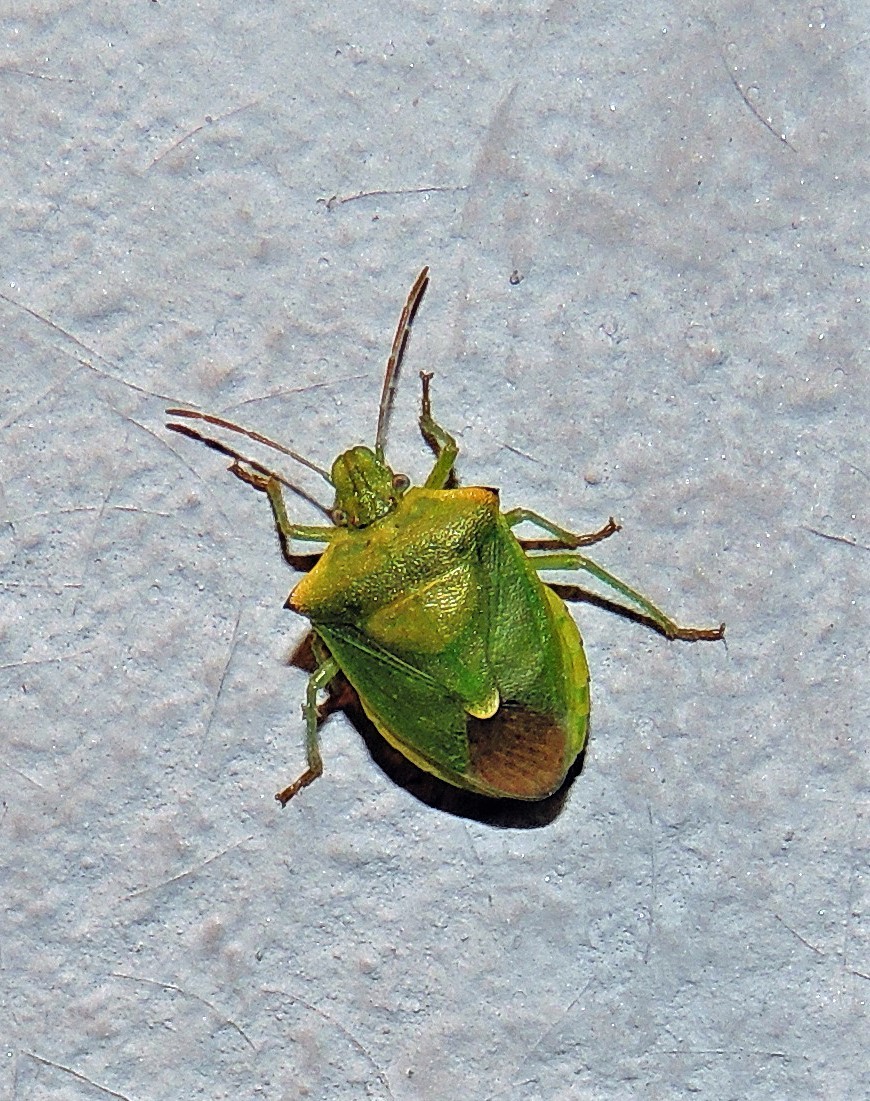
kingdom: Animalia
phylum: Arthropoda
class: Insecta
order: Hemiptera
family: Pentatomidae
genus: Thyanta
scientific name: Thyanta
